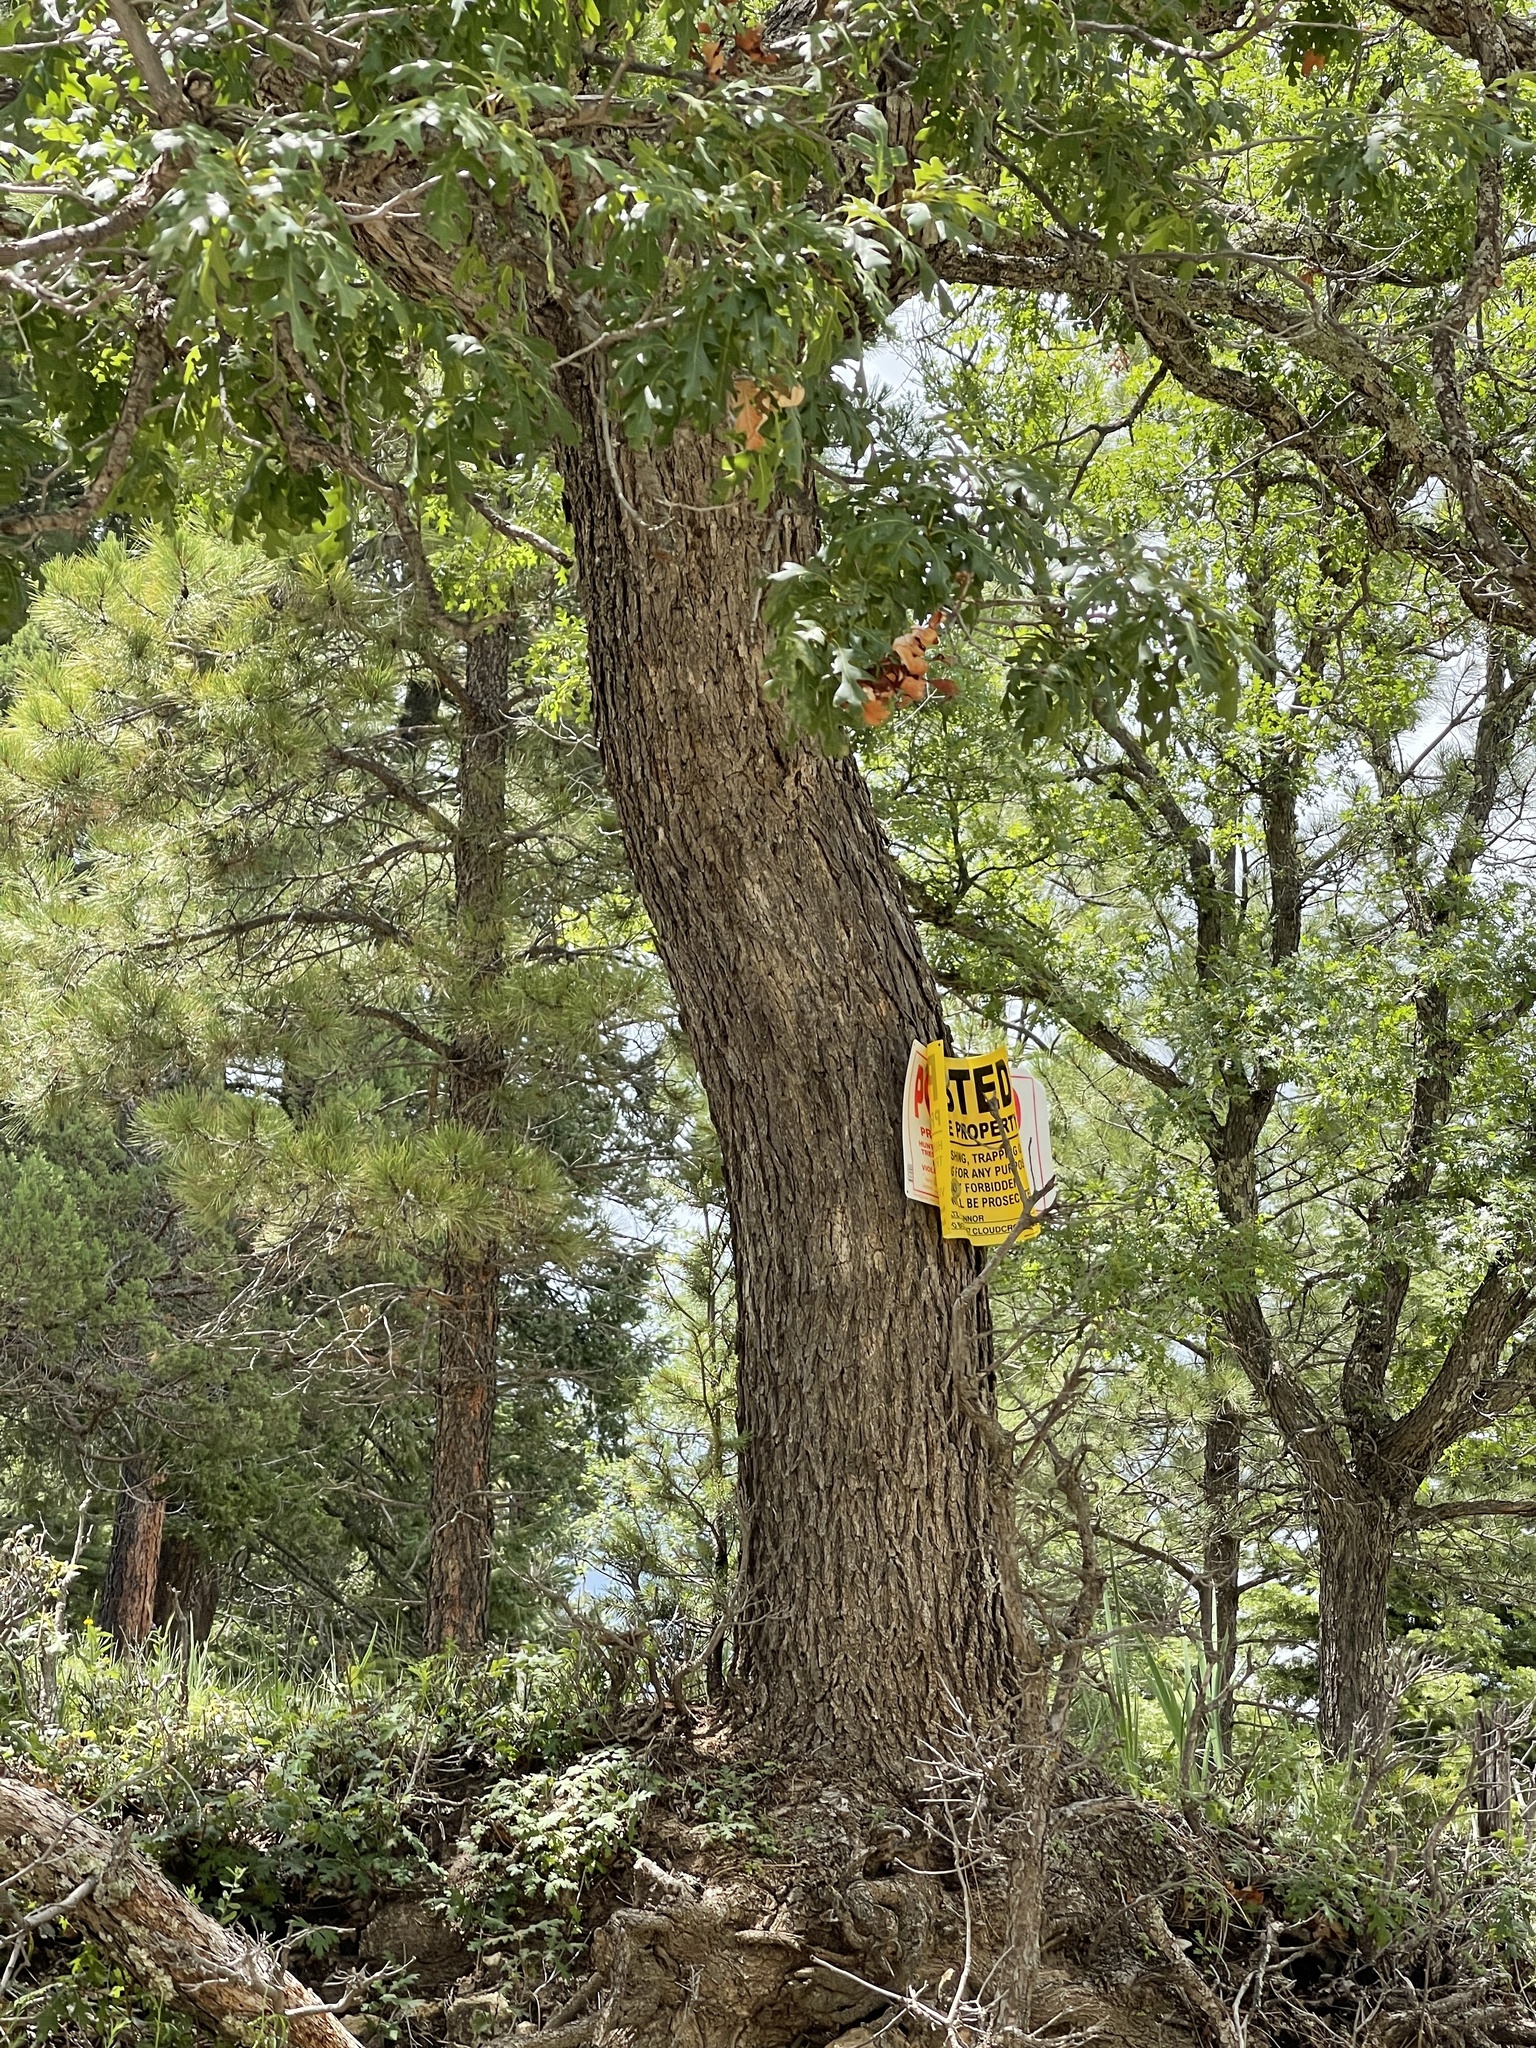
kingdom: Plantae
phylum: Tracheophyta
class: Magnoliopsida
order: Fagales
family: Fagaceae
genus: Quercus
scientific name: Quercus gambelii
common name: Gambel oak
